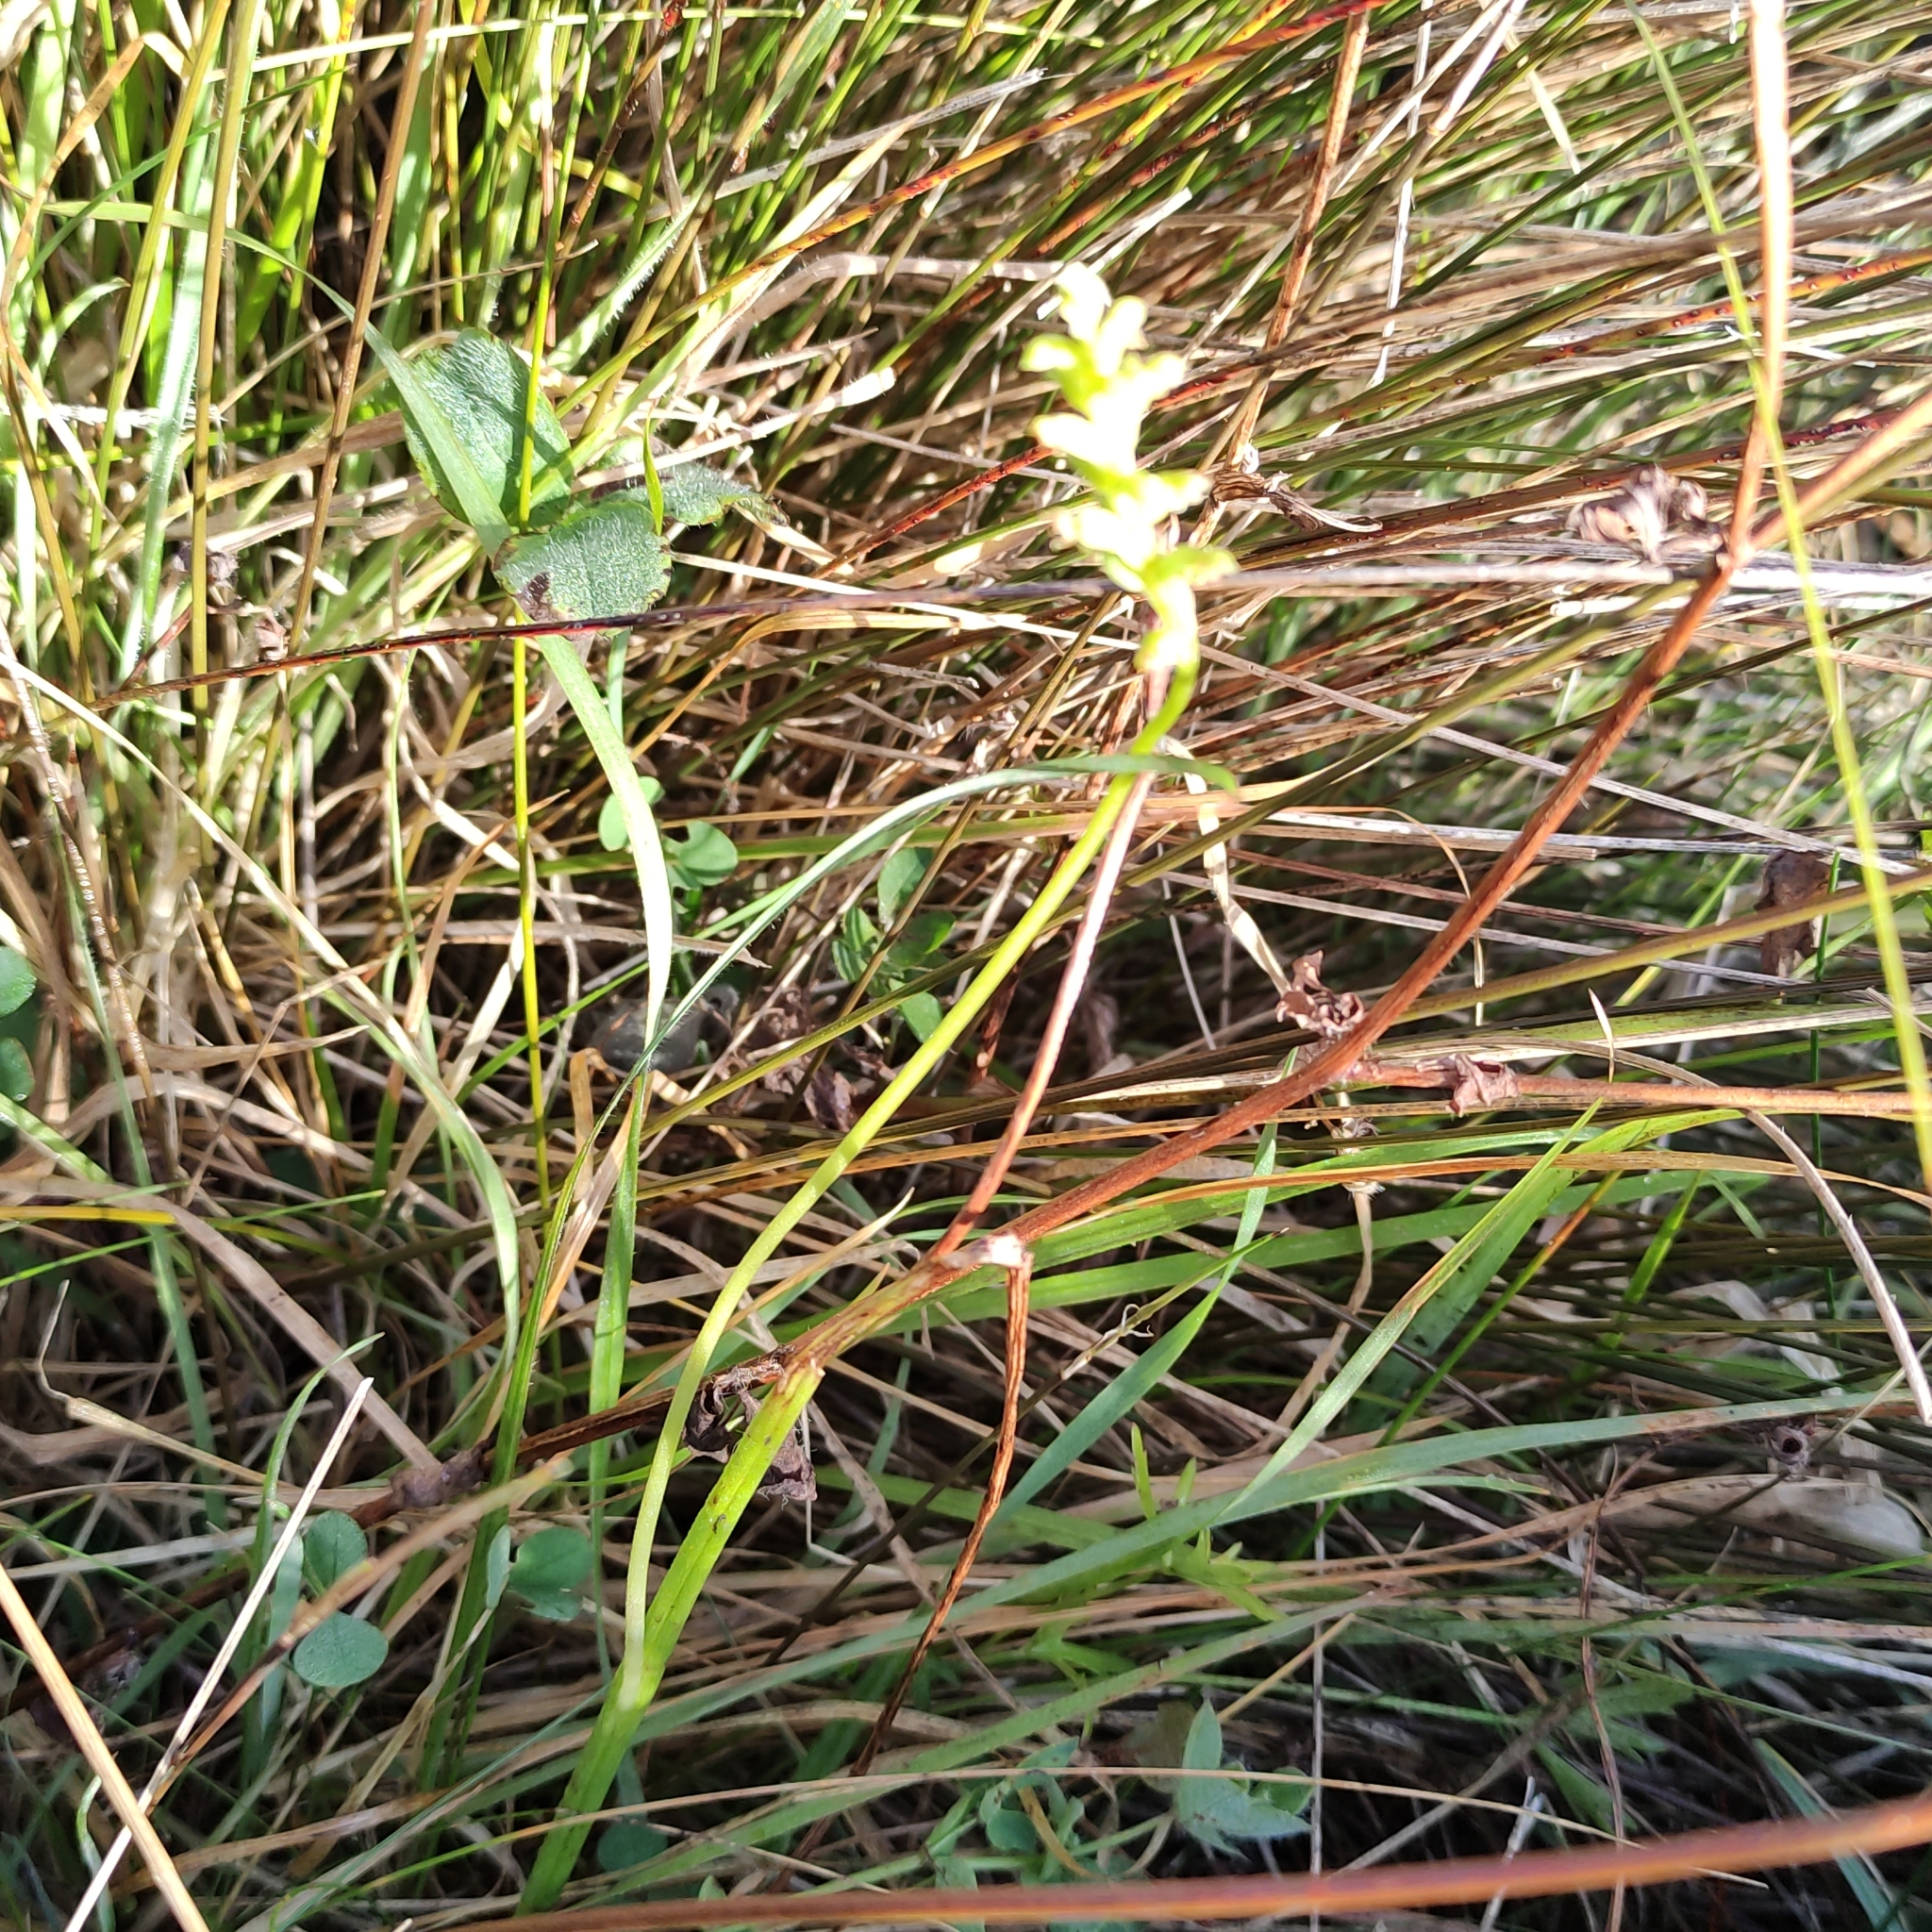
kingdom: Plantae
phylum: Tracheophyta
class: Liliopsida
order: Asparagales
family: Orchidaceae
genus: Microtis
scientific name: Microtis unifolia
